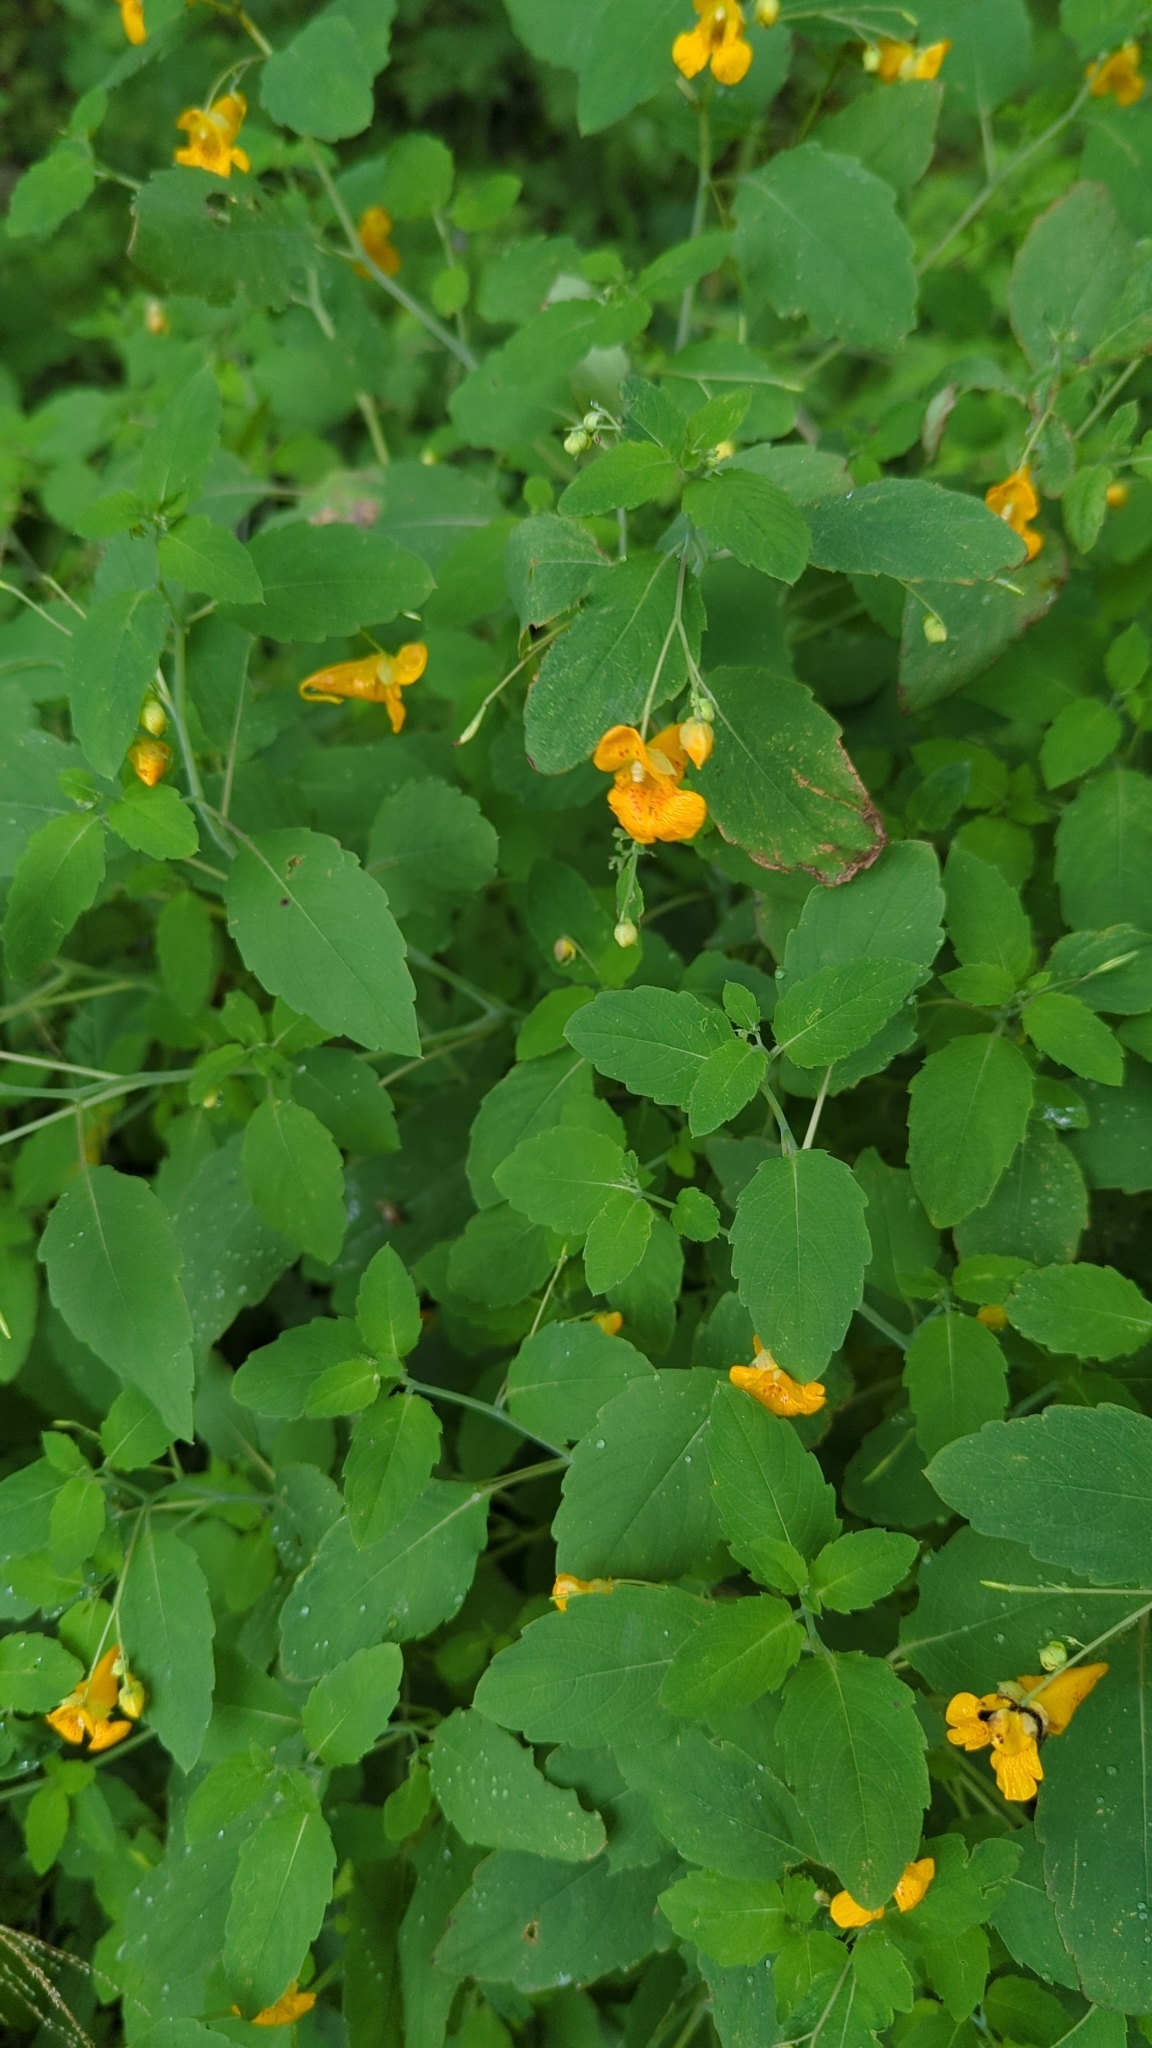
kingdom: Plantae
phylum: Tracheophyta
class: Magnoliopsida
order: Ericales
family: Balsaminaceae
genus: Impatiens
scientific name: Impatiens capensis
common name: Orange balsam
